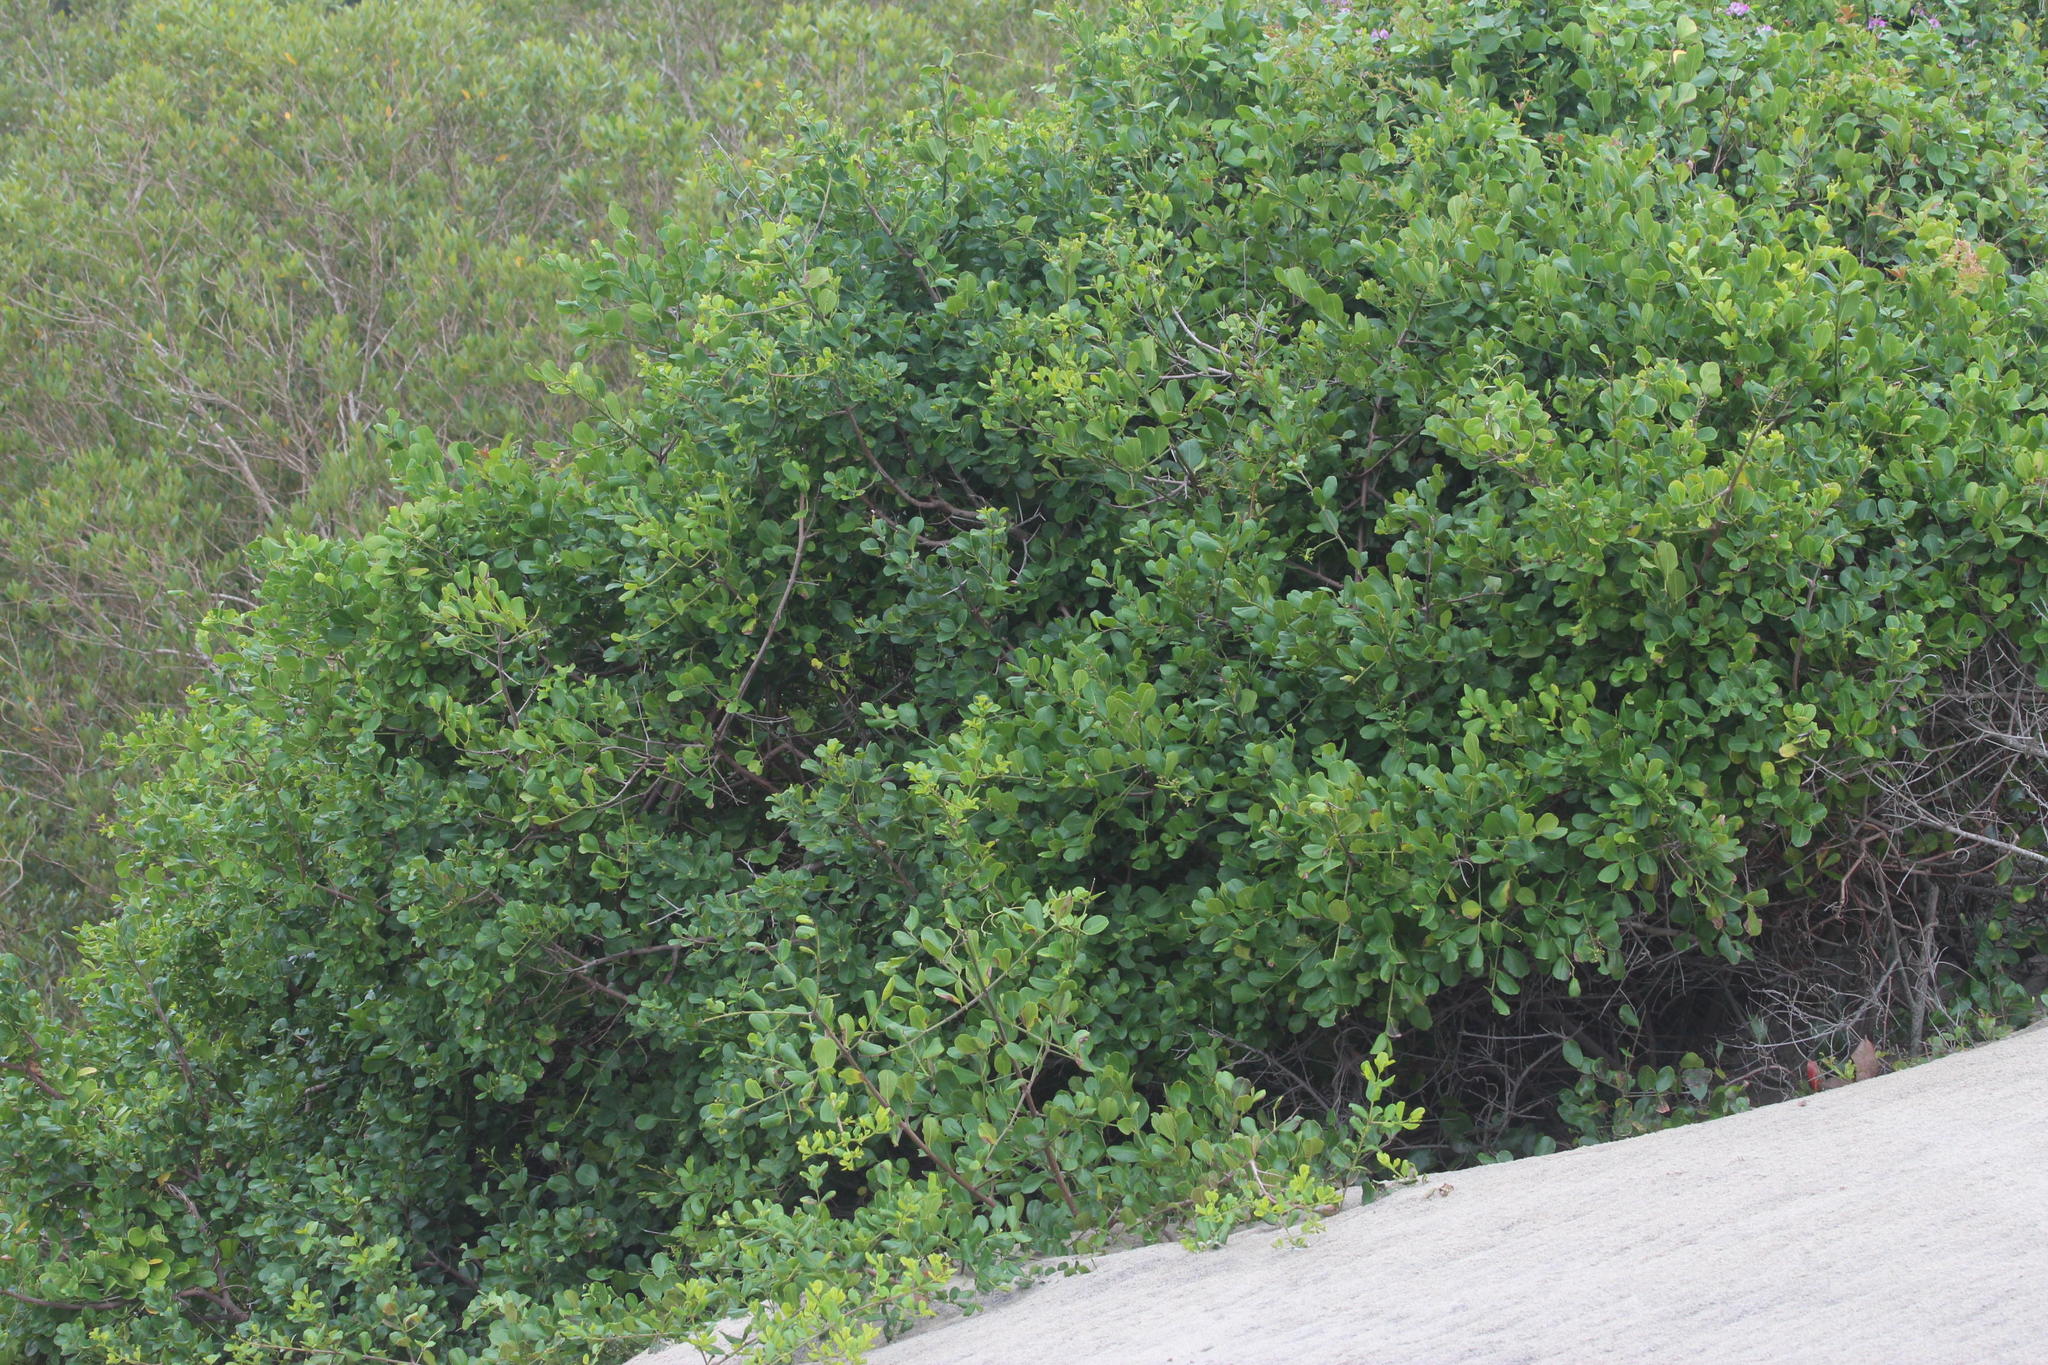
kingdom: Plantae
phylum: Tracheophyta
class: Magnoliopsida
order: Rosales
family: Rhamnaceae
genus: Scutia
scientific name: Scutia myrtina
